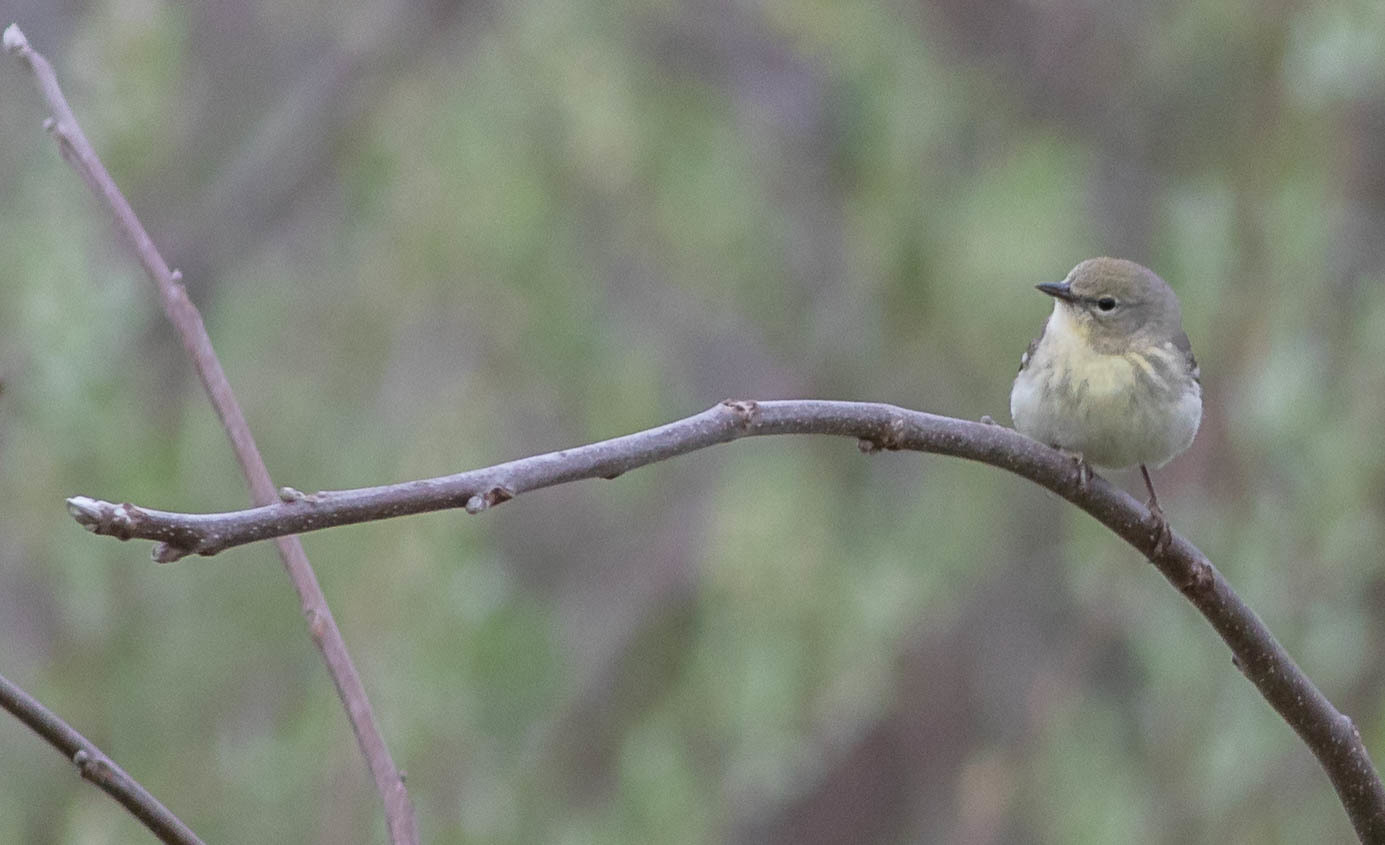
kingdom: Animalia
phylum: Chordata
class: Aves
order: Passeriformes
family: Parulidae
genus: Setophaga
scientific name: Setophaga pinus
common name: Pine warbler
